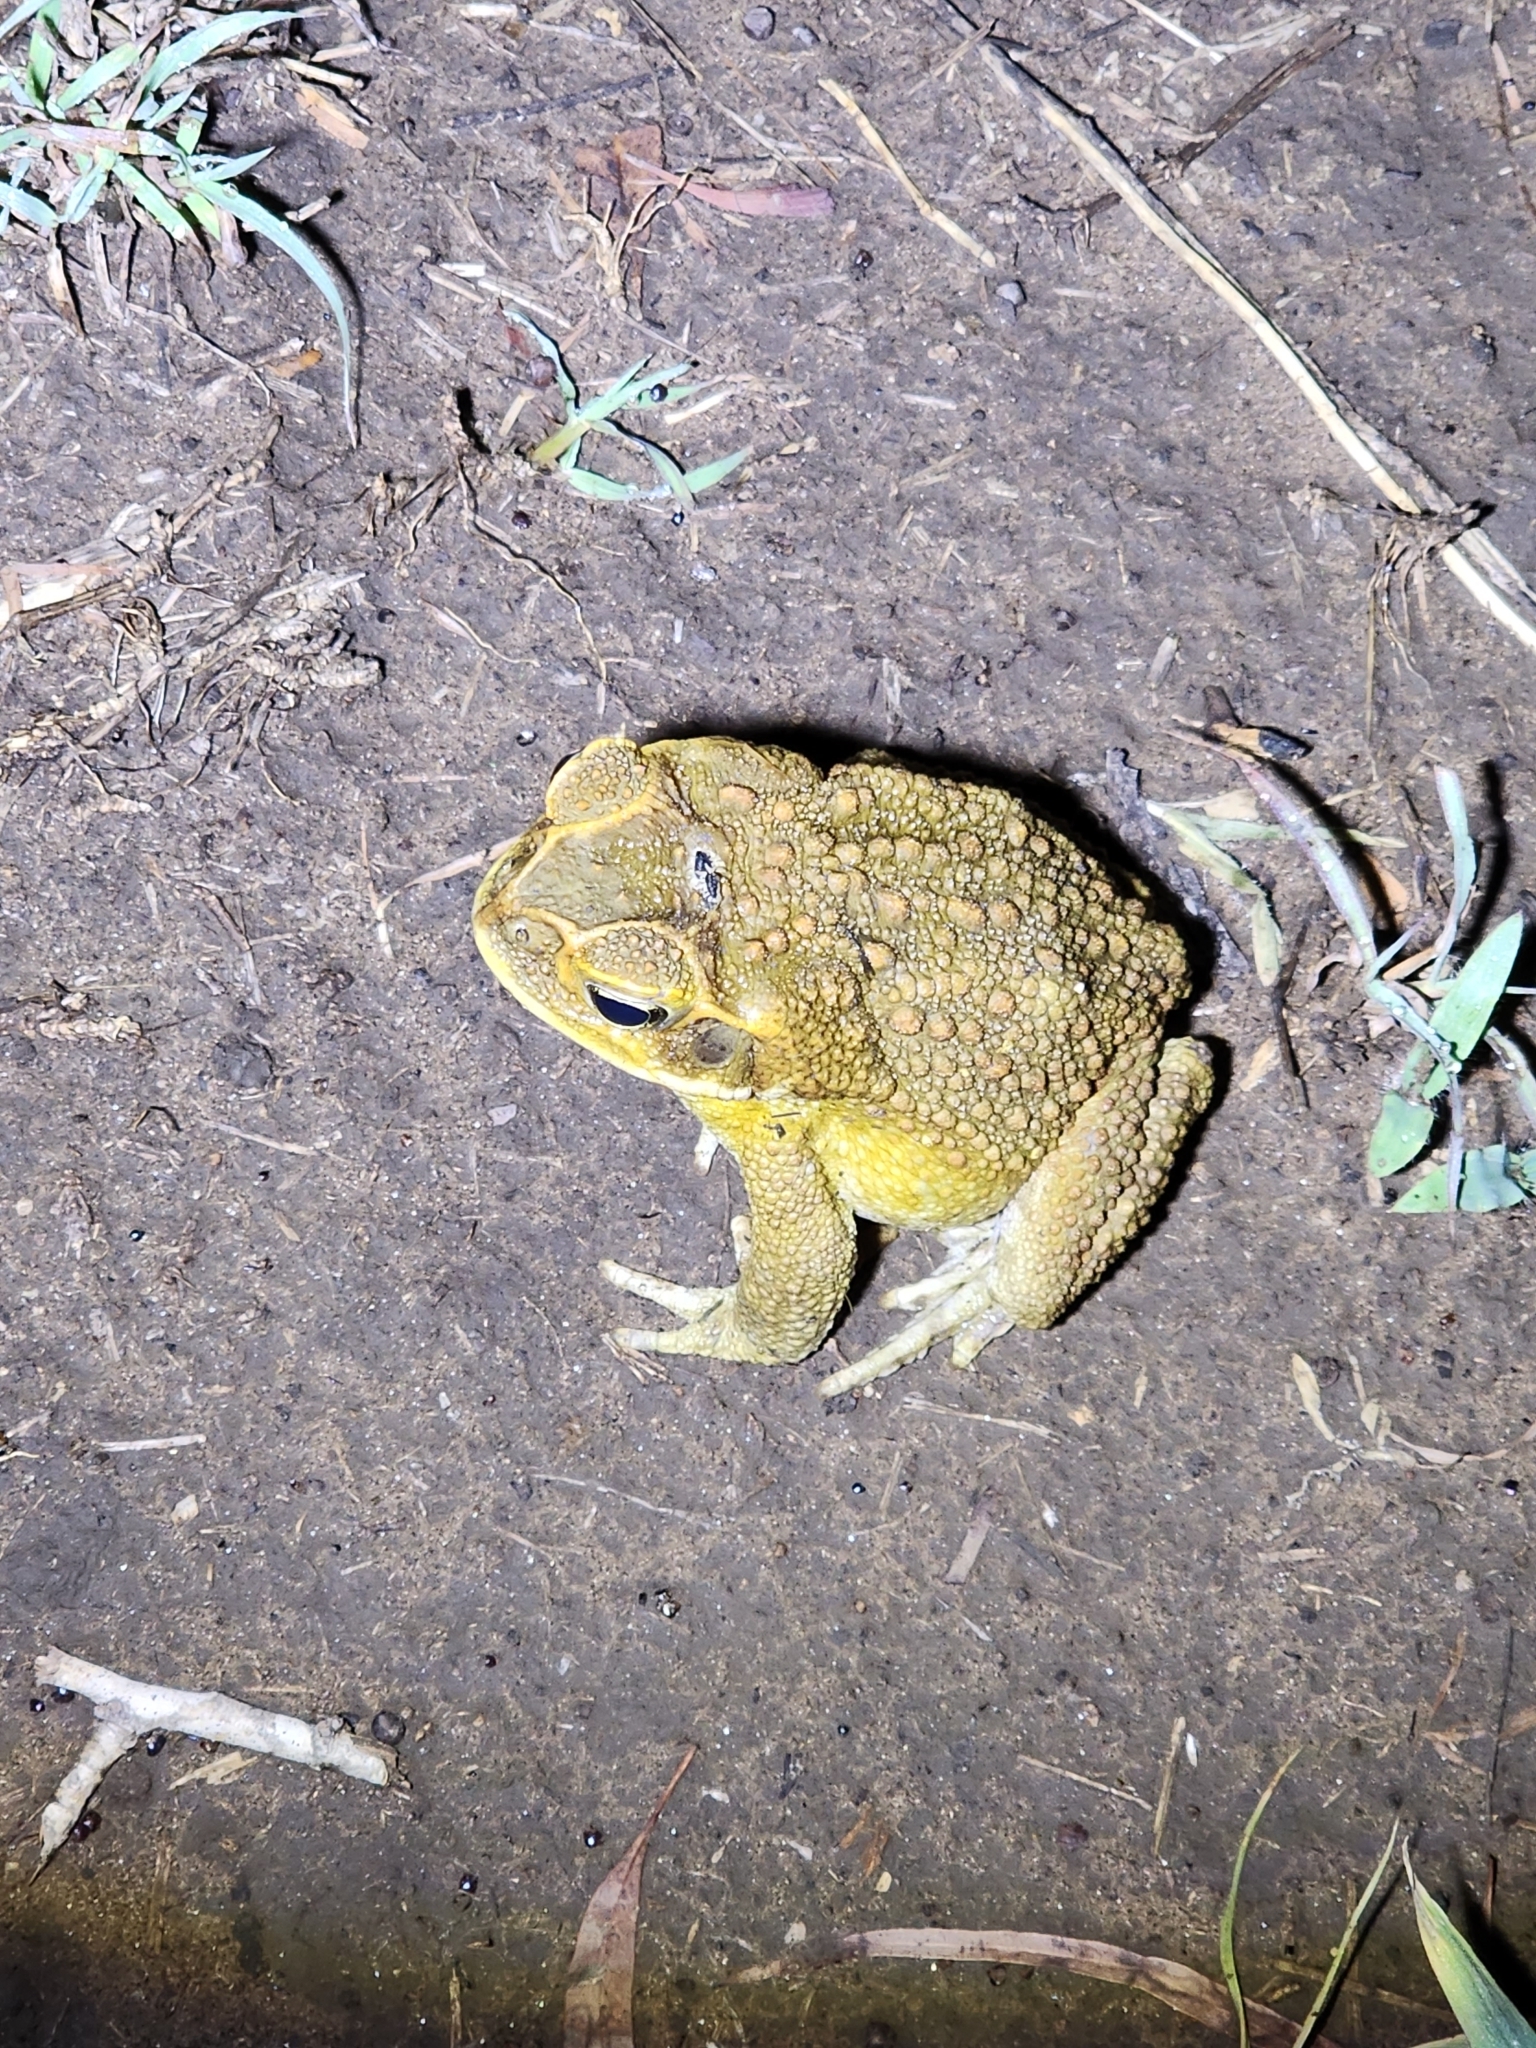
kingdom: Animalia
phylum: Chordata
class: Amphibia
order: Anura
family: Bufonidae
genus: Rhinella
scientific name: Rhinella marina
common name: Cane toad
